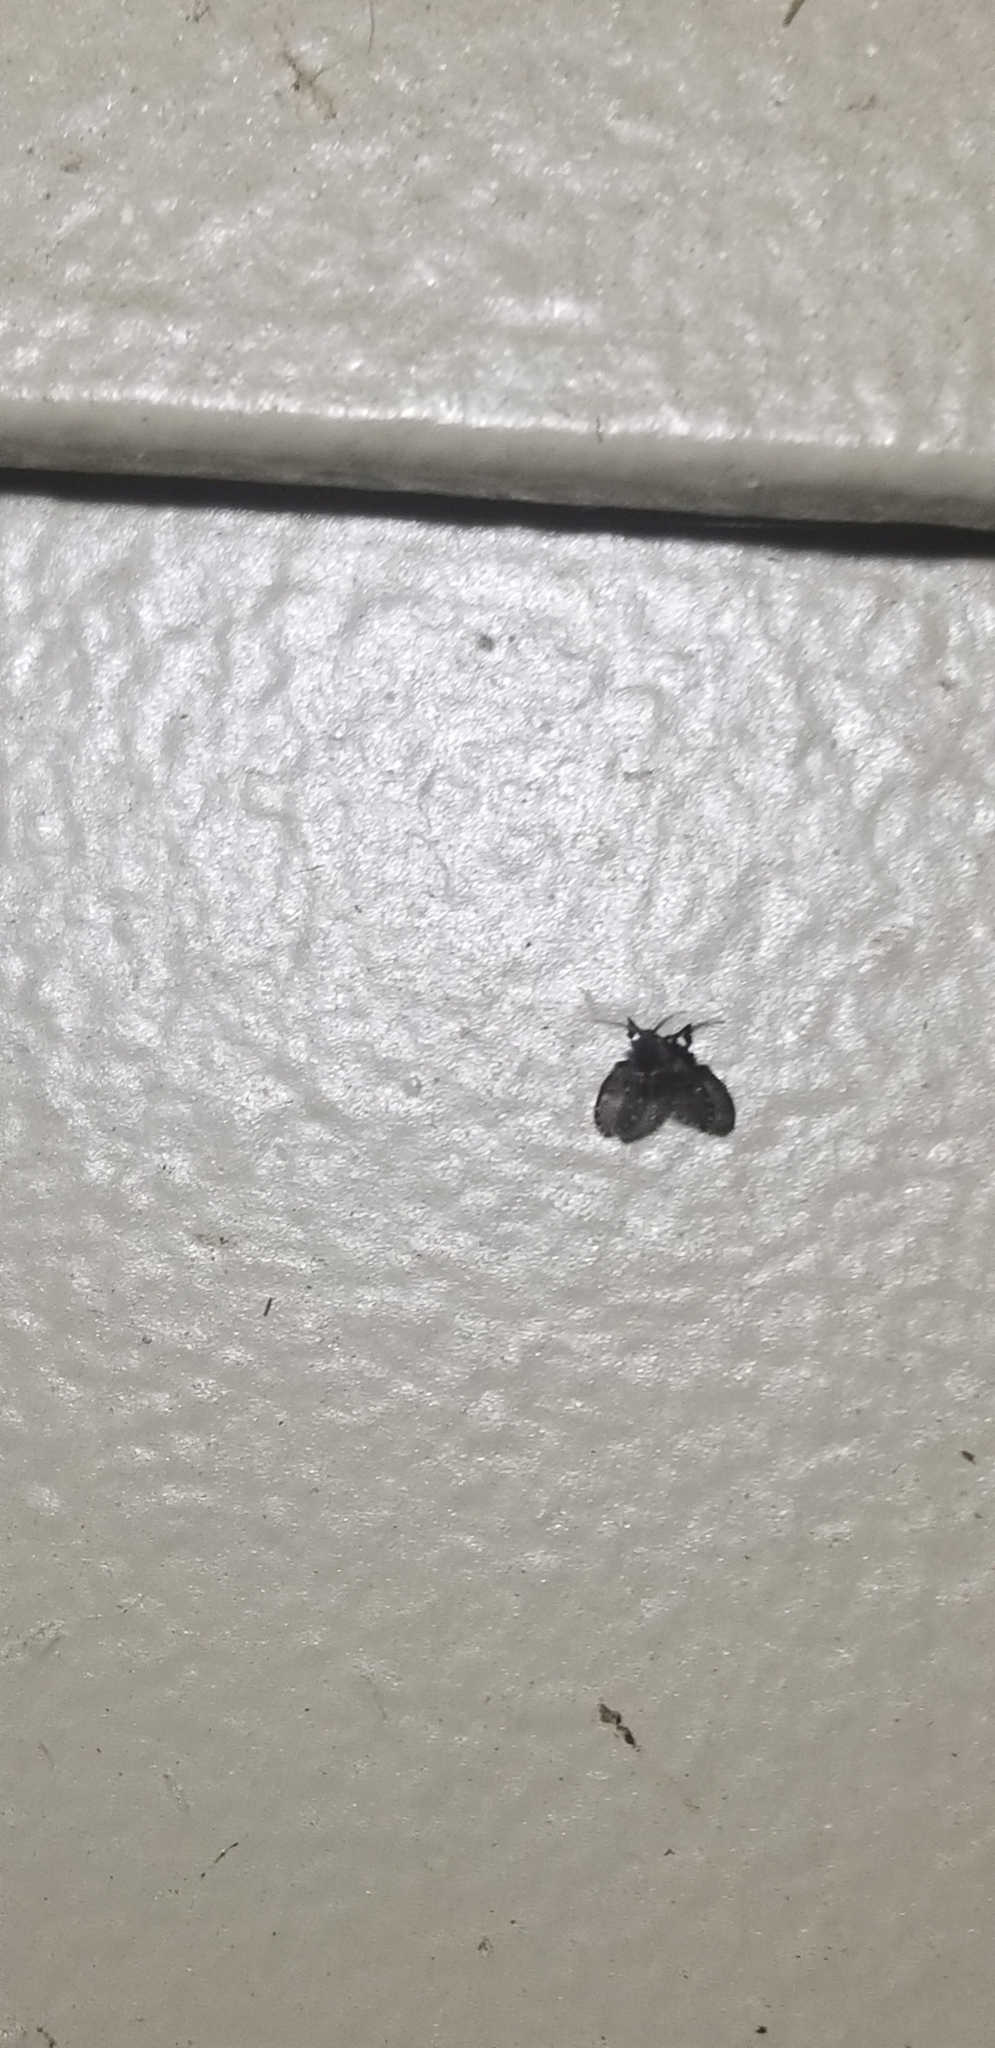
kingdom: Animalia
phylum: Arthropoda
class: Insecta
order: Diptera
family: Psychodidae
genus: Clogmia
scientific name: Clogmia albipunctatus
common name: White-spotted moth fly
